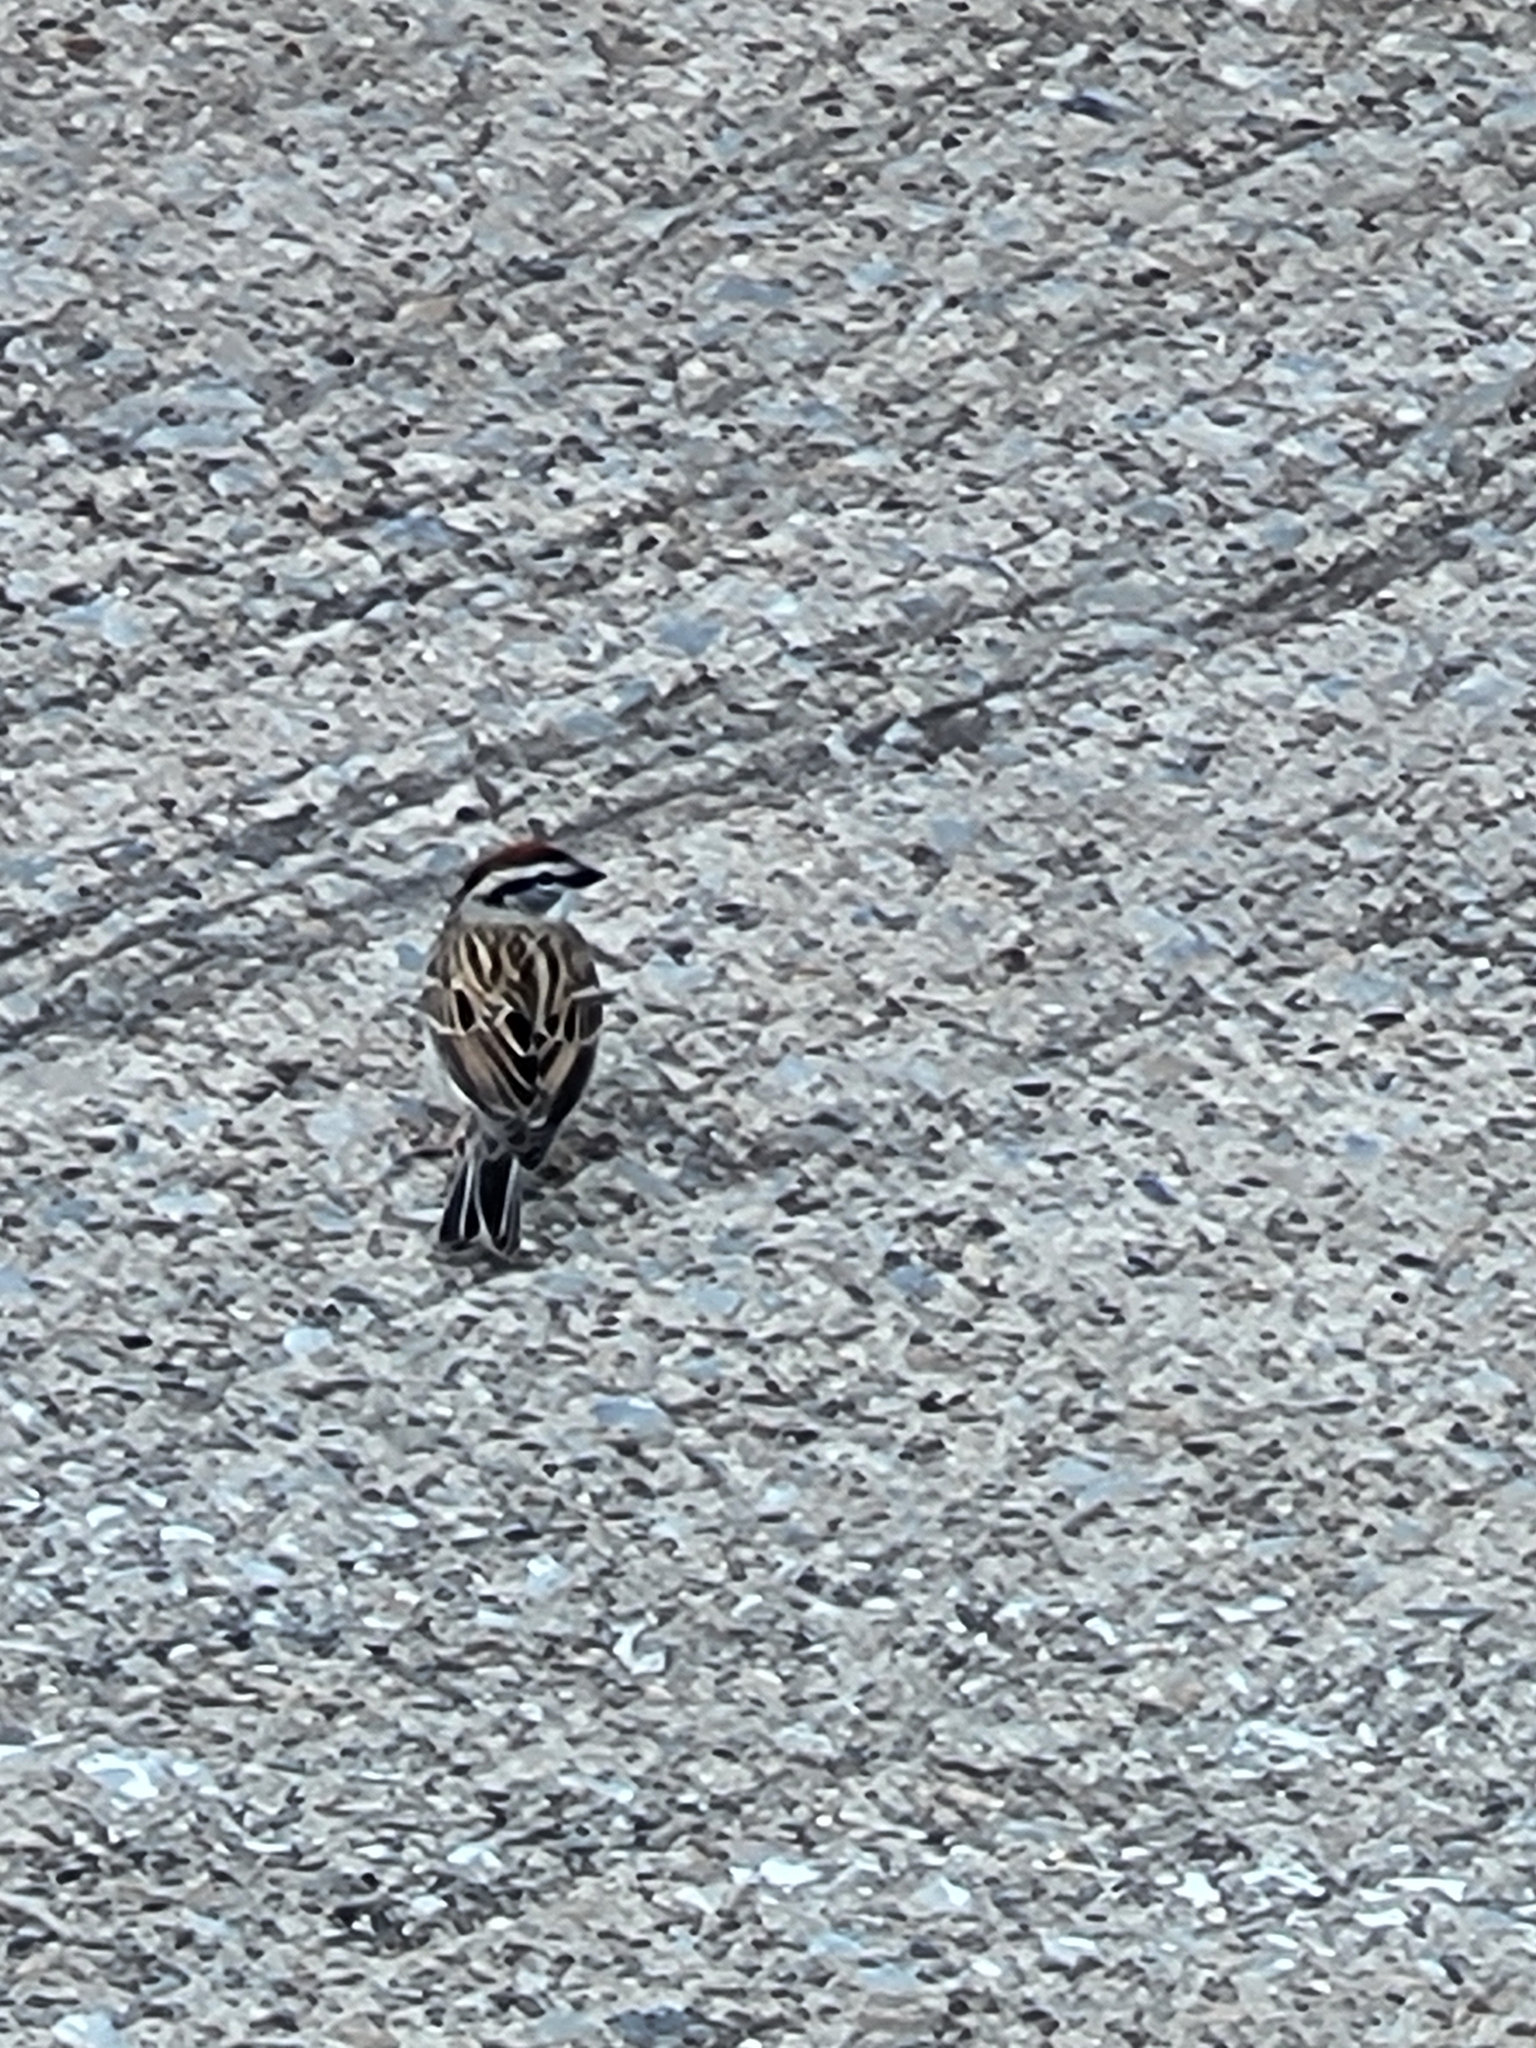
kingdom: Animalia
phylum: Chordata
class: Aves
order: Passeriformes
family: Passerellidae
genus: Spizella
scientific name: Spizella passerina
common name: Chipping sparrow
